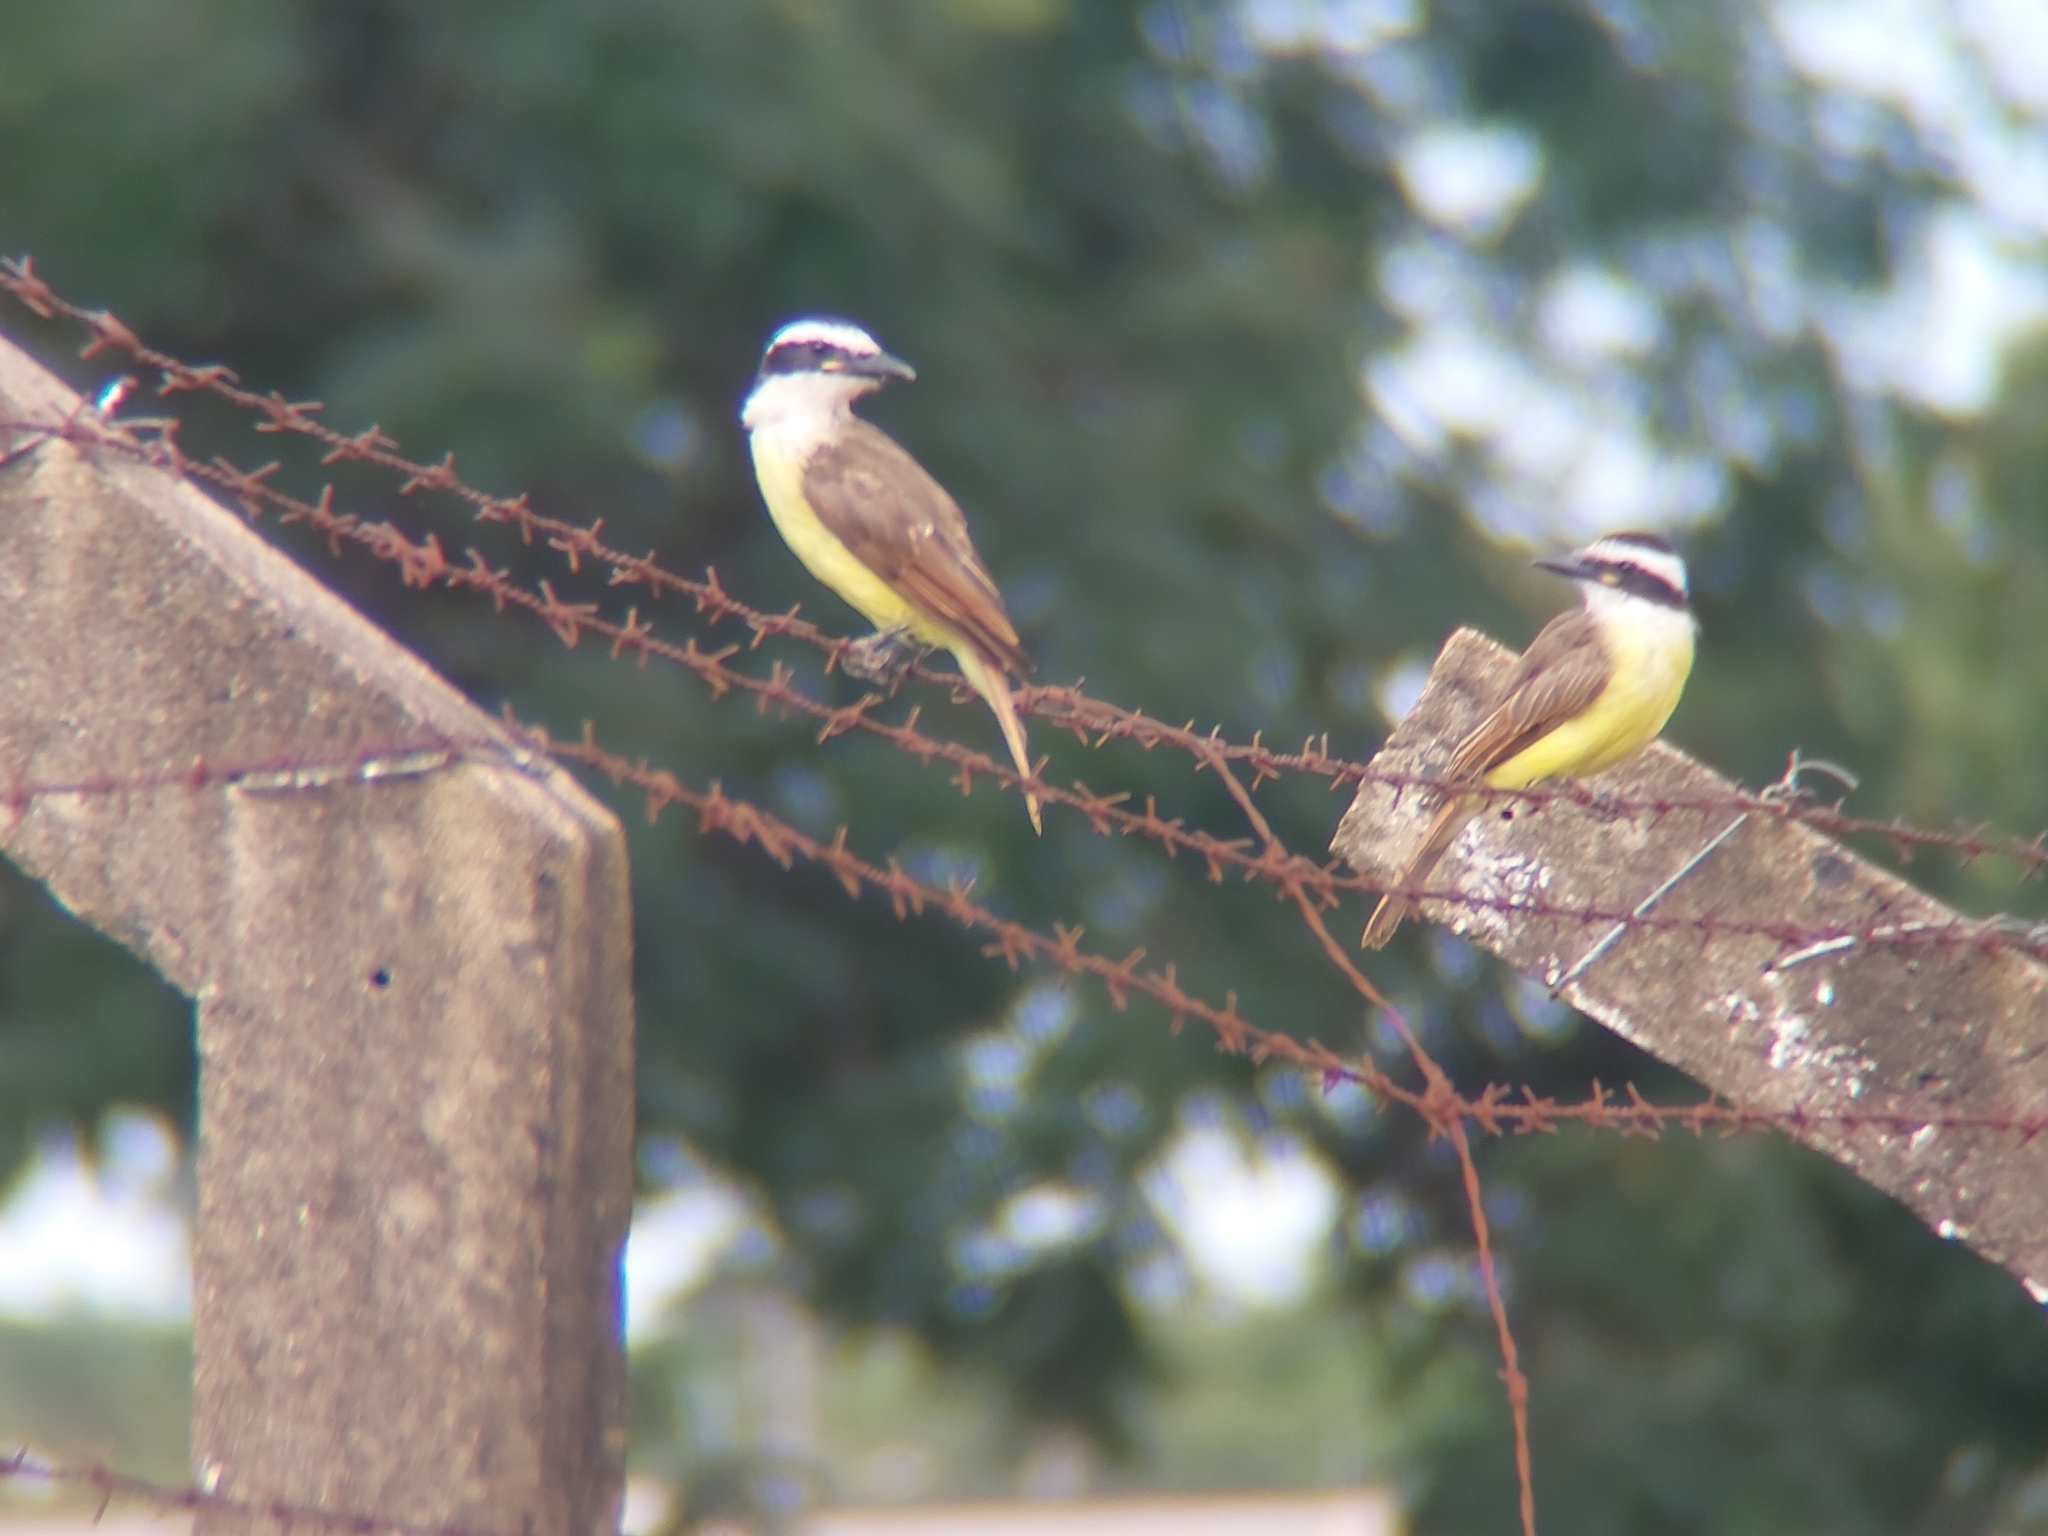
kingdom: Animalia
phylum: Chordata
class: Aves
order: Passeriformes
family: Tyrannidae
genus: Pitangus
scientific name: Pitangus sulphuratus
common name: Great kiskadee
